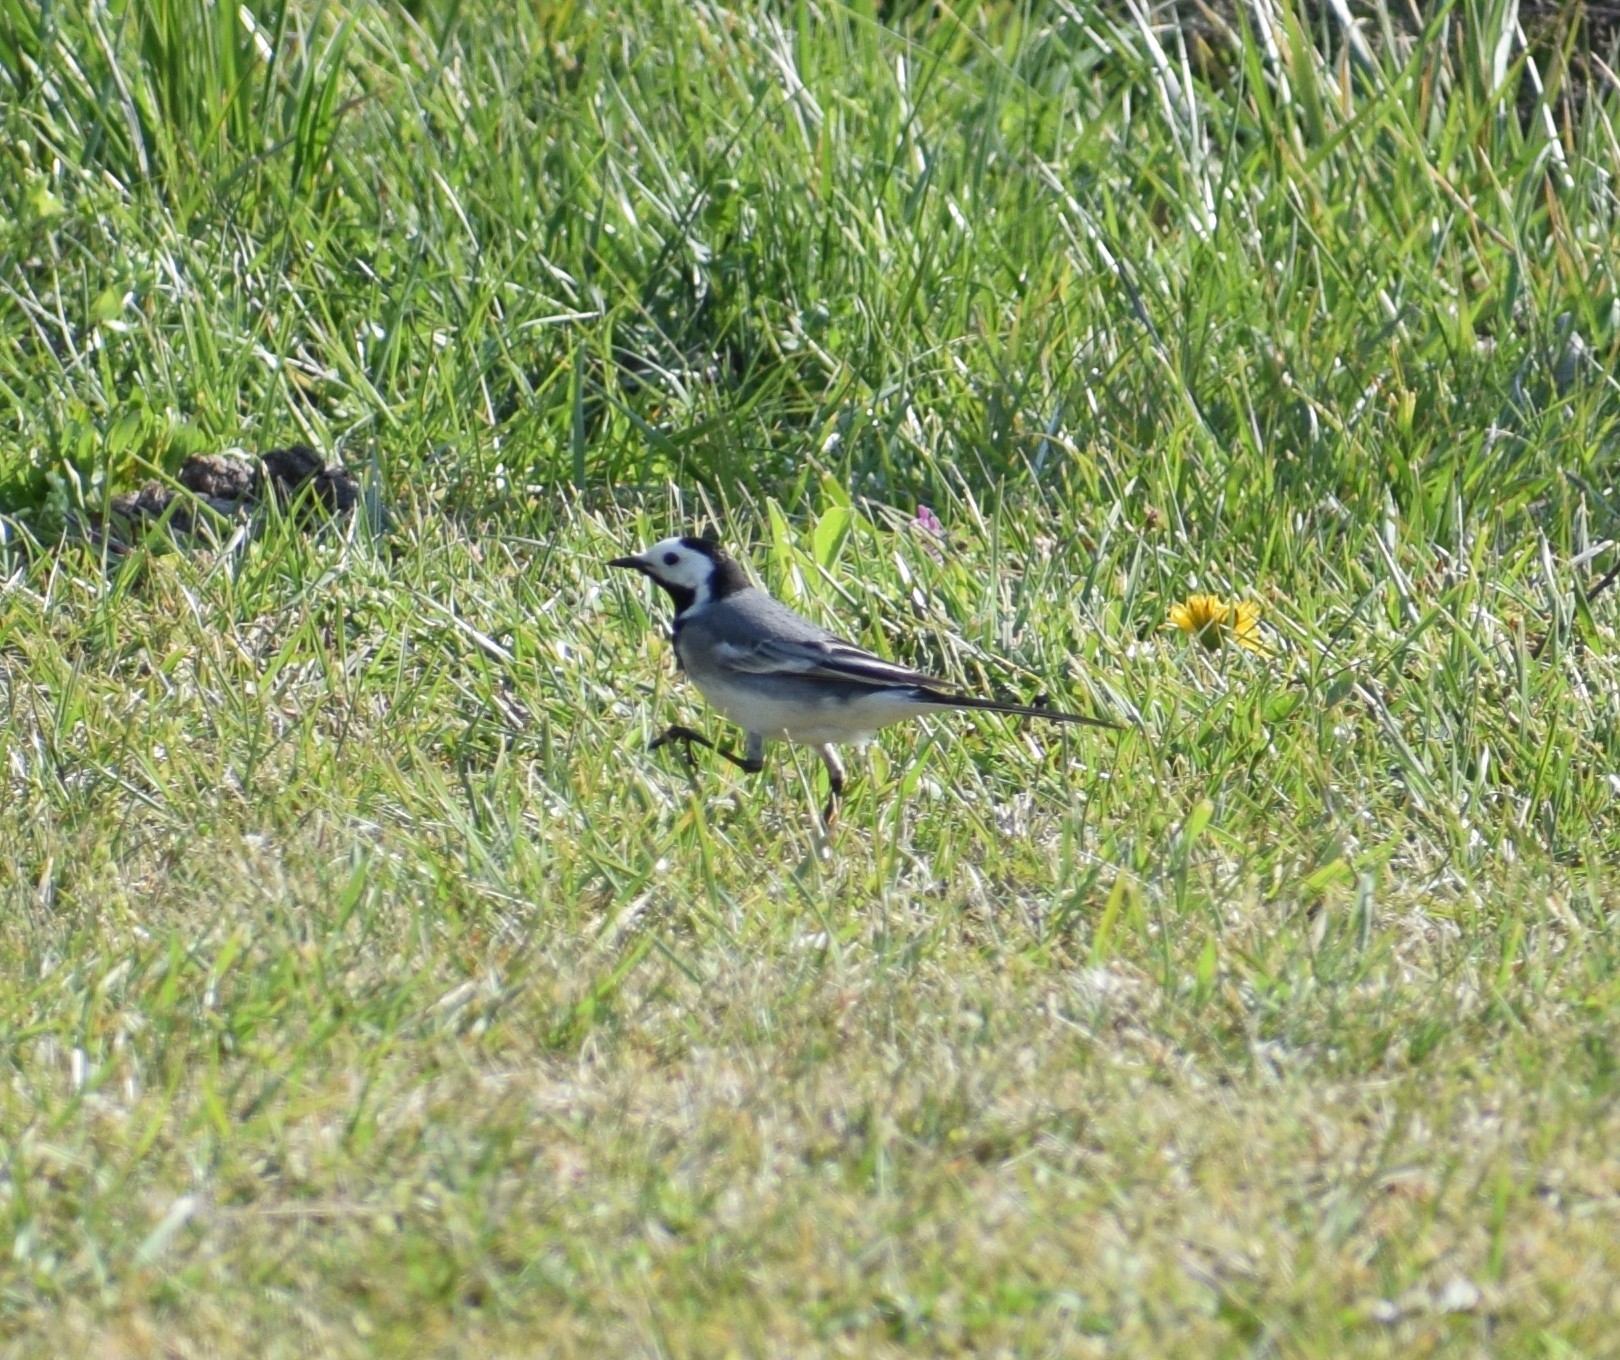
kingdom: Animalia
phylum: Chordata
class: Aves
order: Passeriformes
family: Motacillidae
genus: Motacilla
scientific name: Motacilla alba
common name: White wagtail
